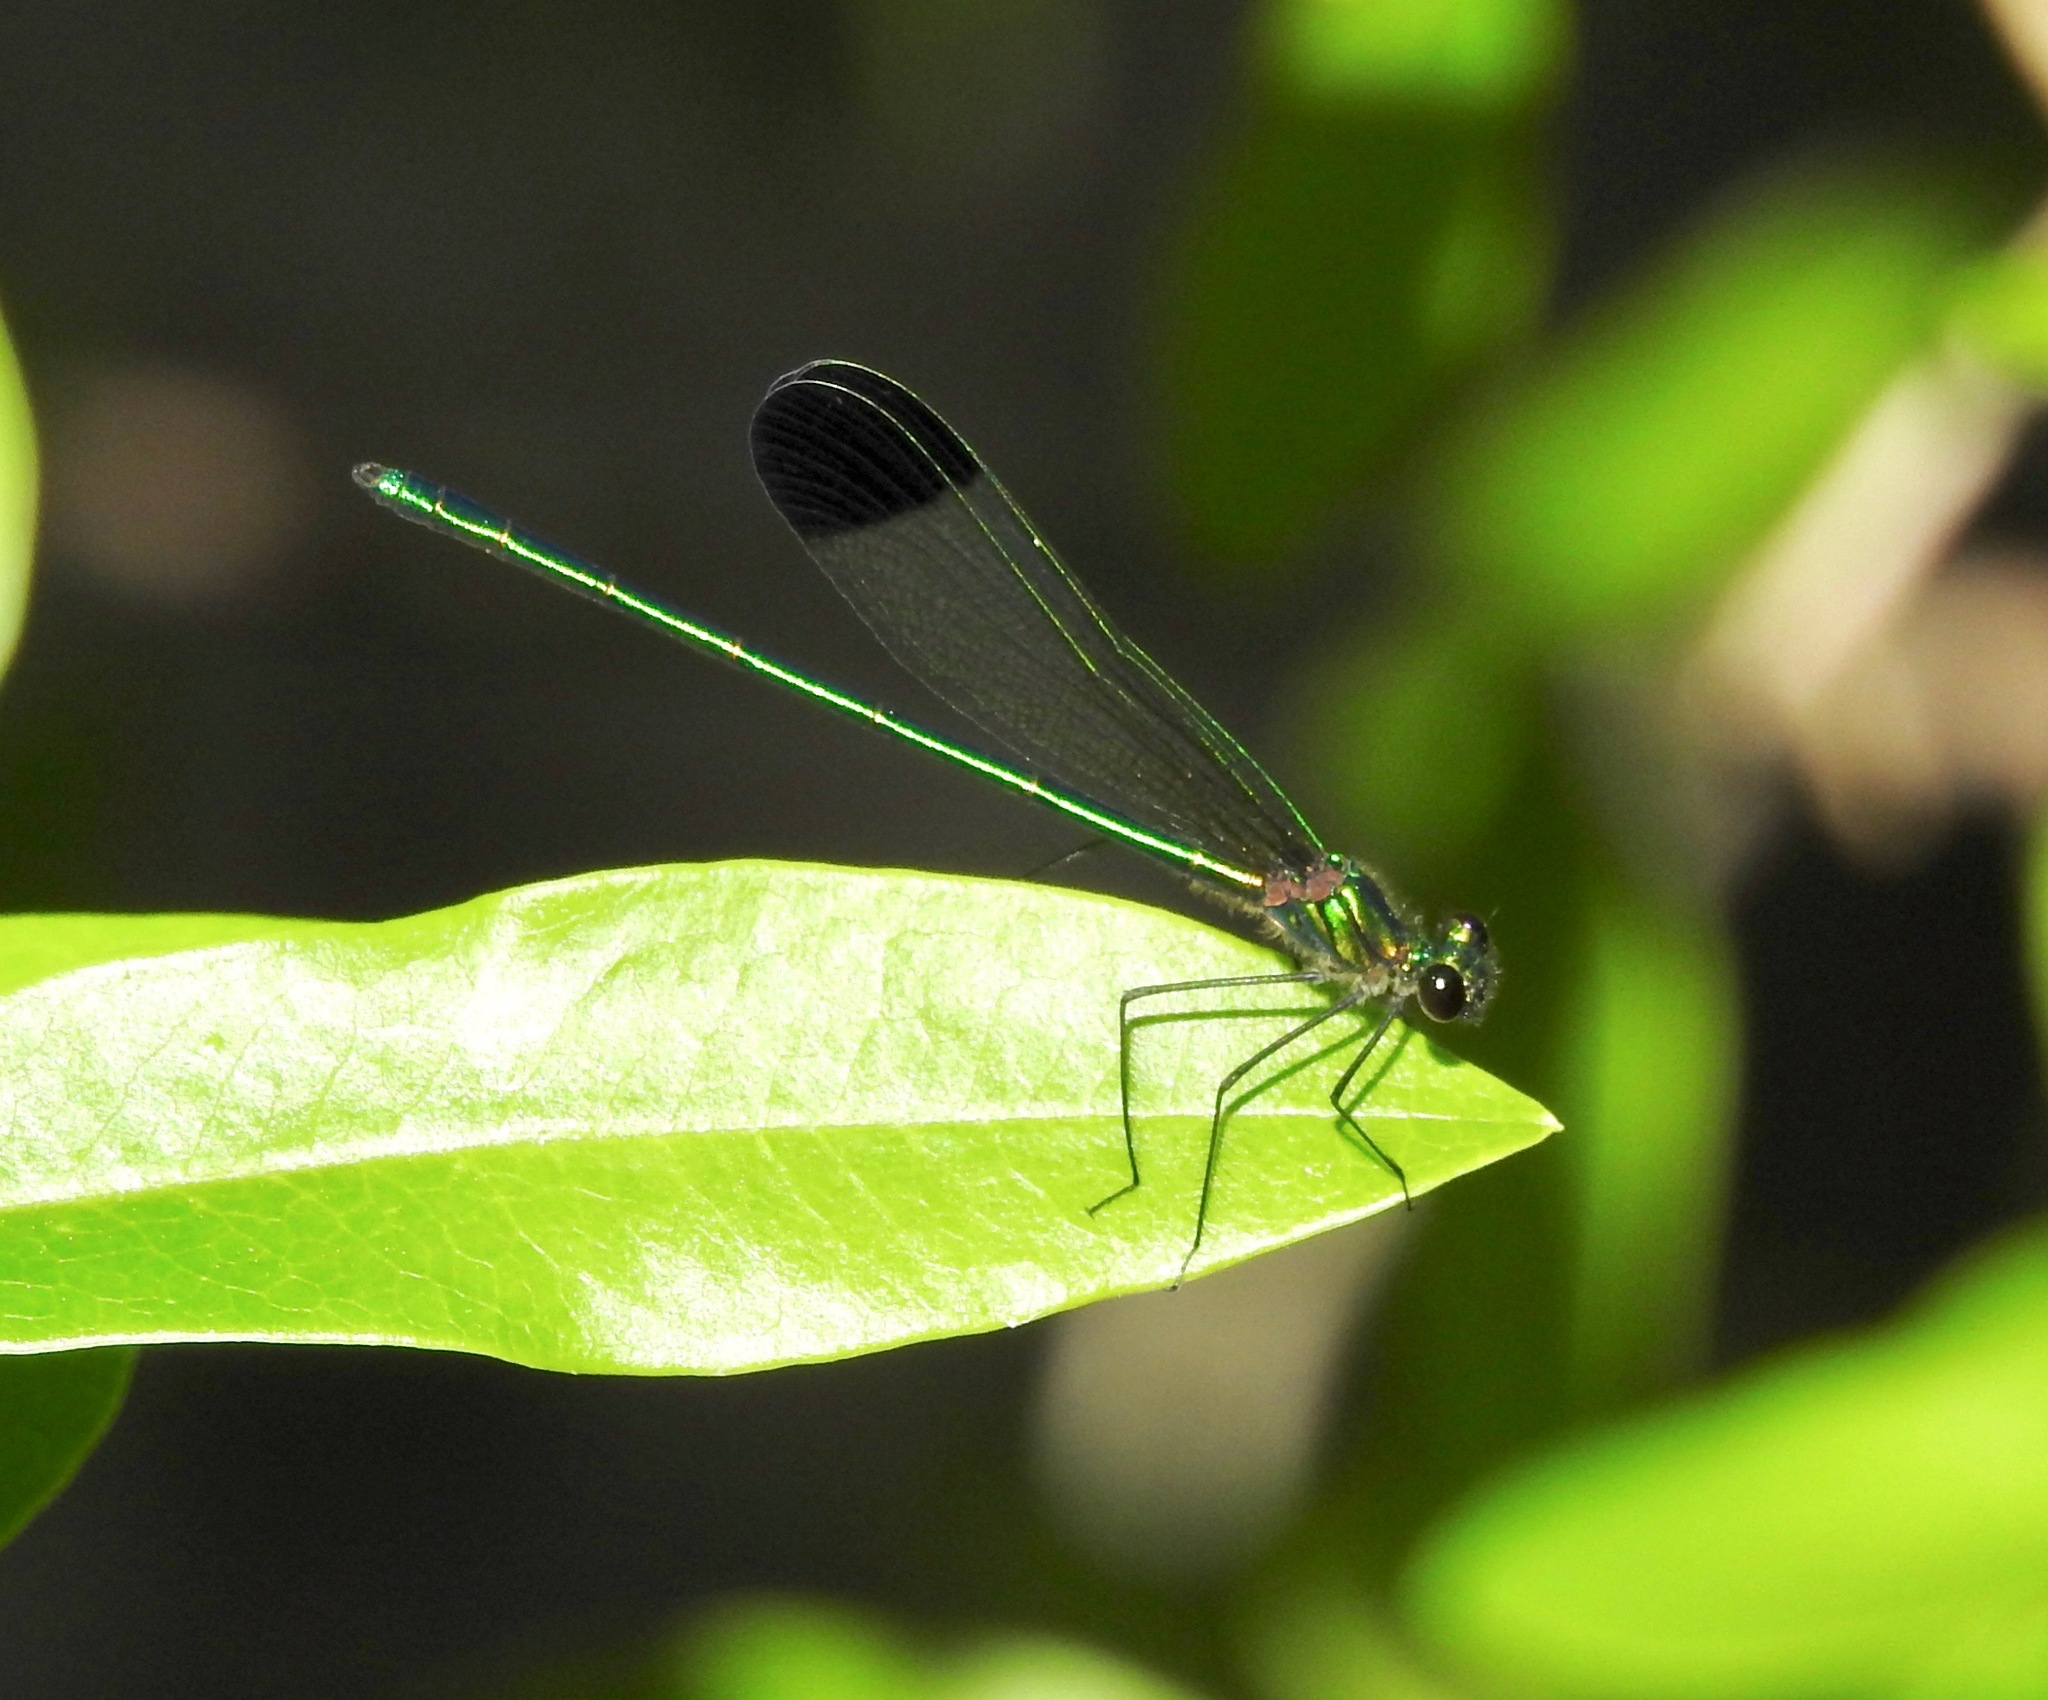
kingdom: Animalia
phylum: Arthropoda
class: Insecta
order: Odonata
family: Calopterygidae
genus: Calopteryx
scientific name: Calopteryx dimidiata
